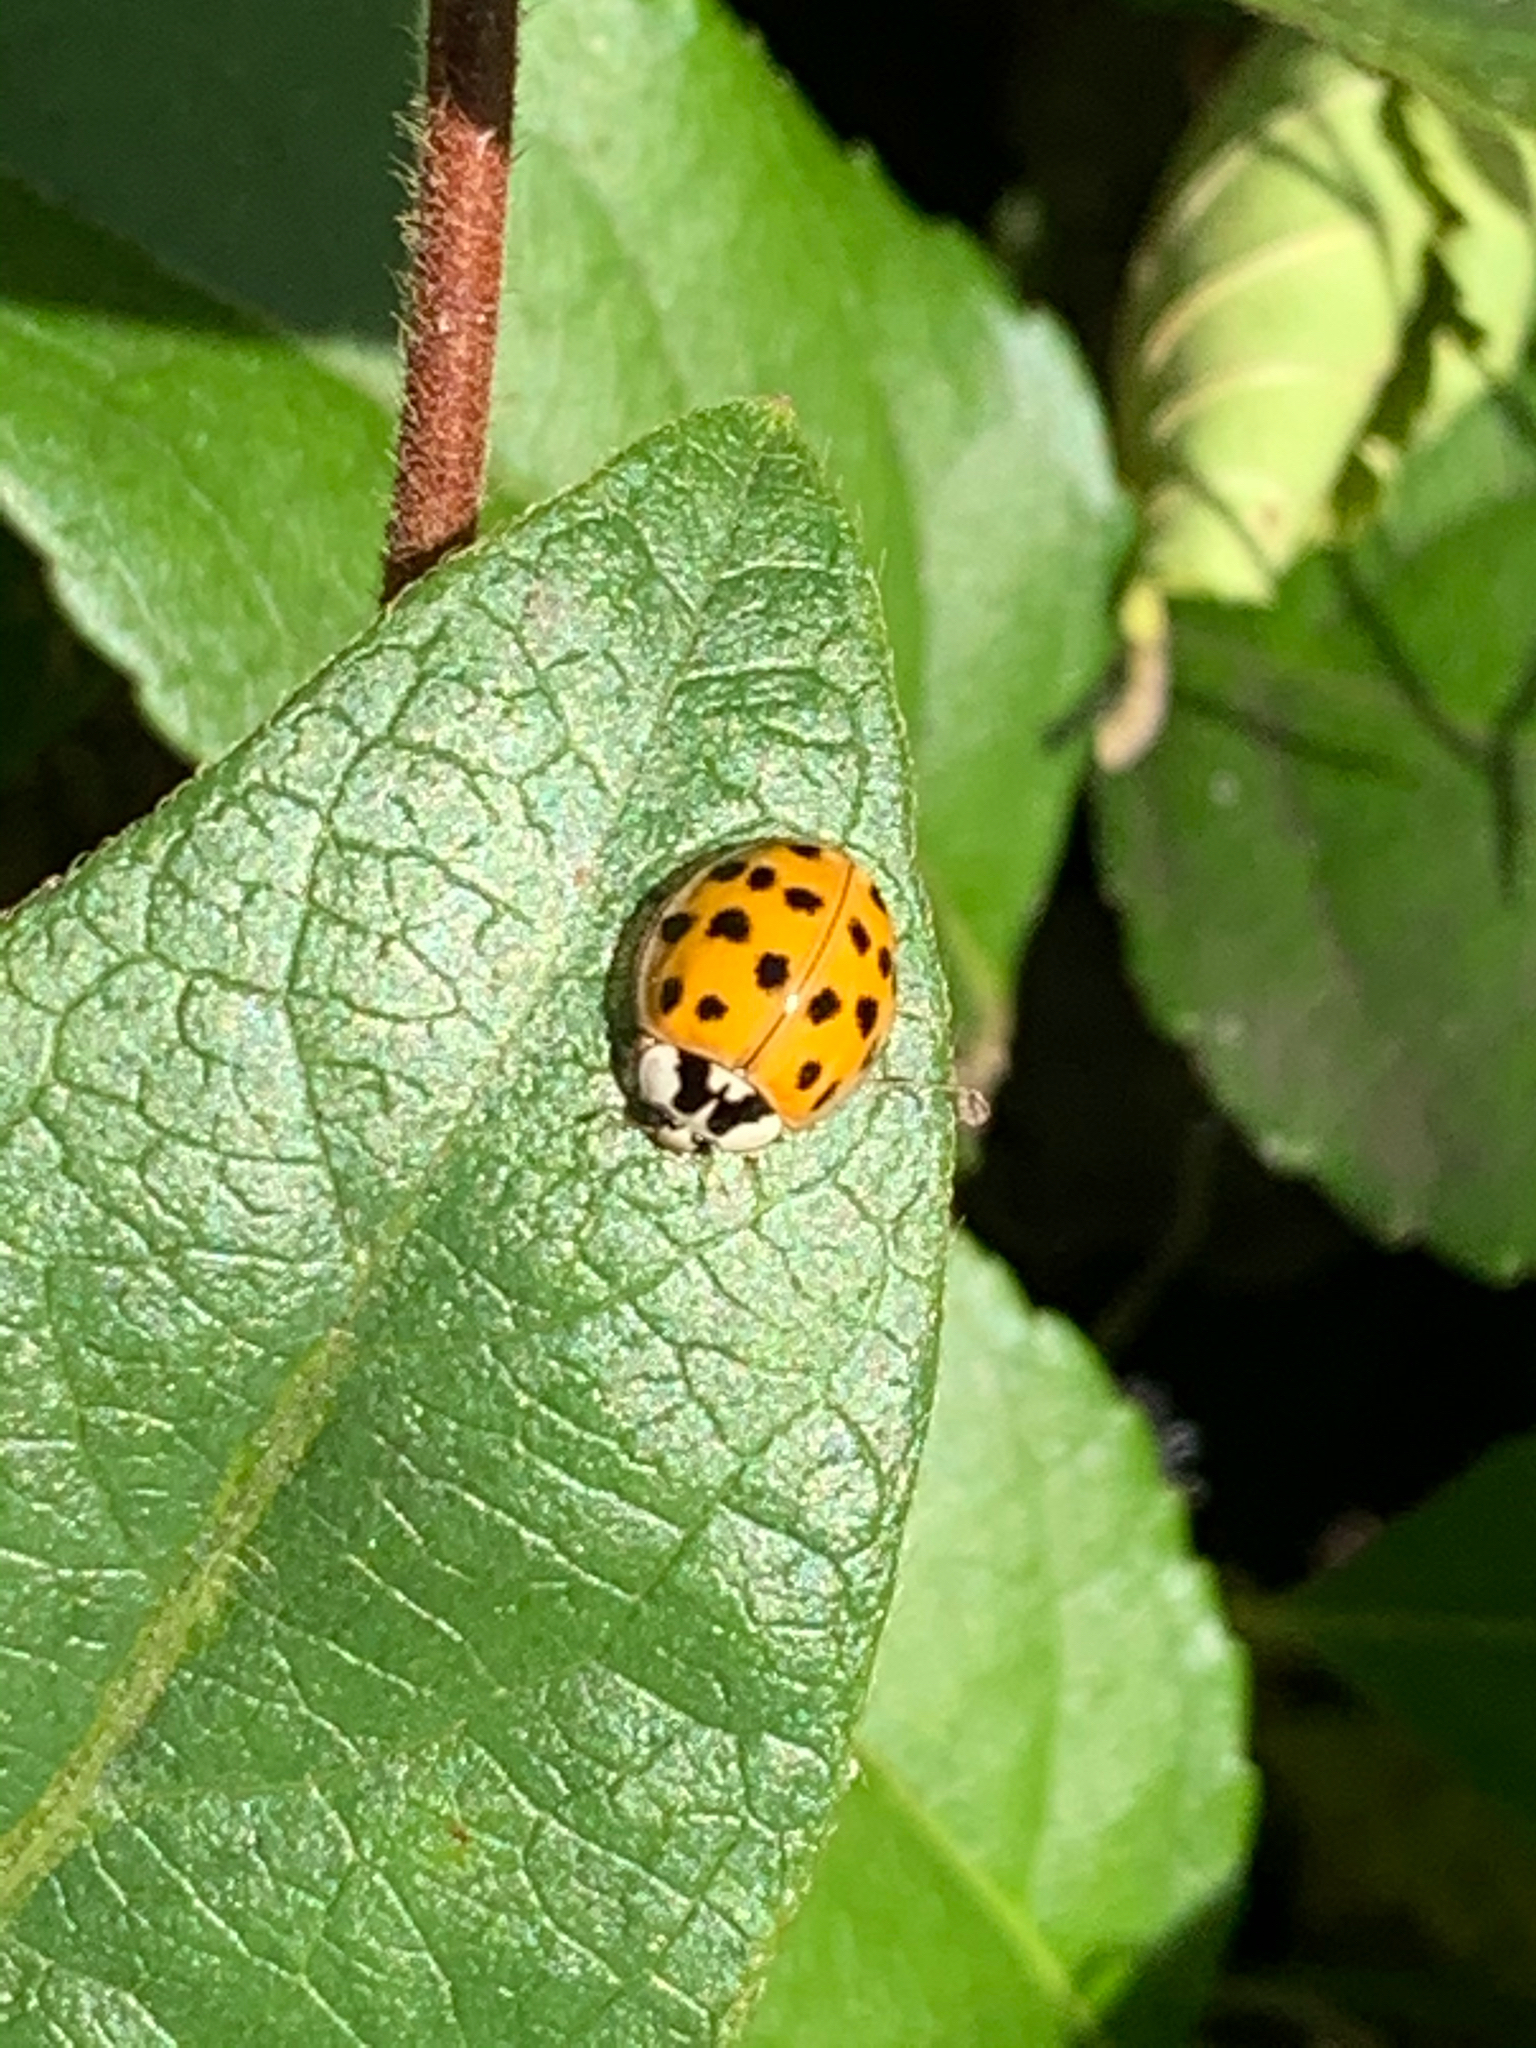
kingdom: Animalia
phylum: Arthropoda
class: Insecta
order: Coleoptera
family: Coccinellidae
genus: Harmonia
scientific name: Harmonia axyridis
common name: Harlequin ladybird
